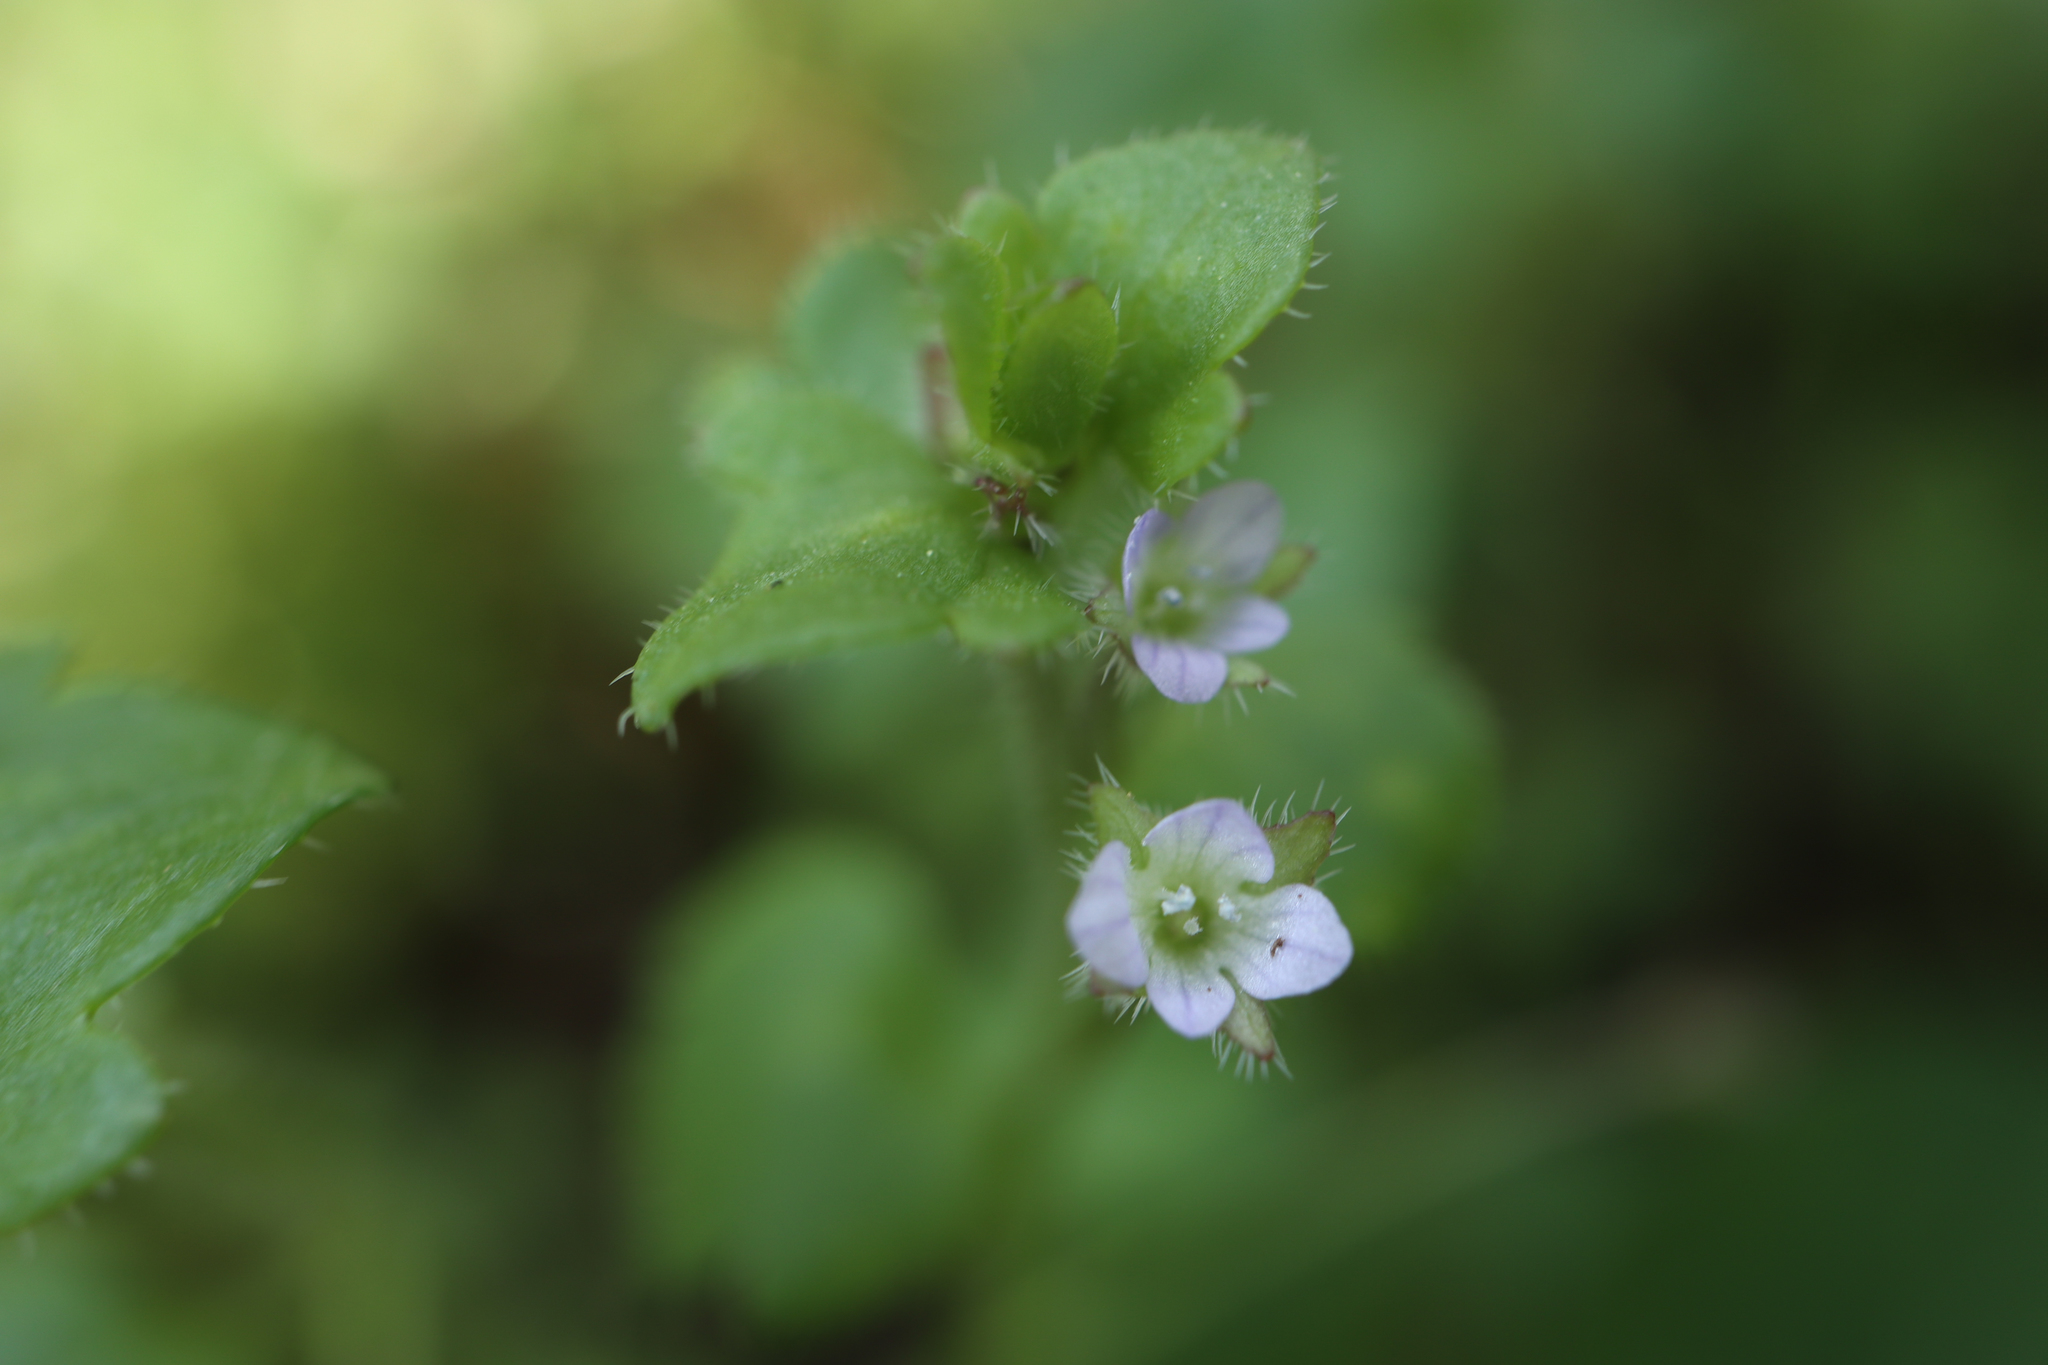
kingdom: Plantae
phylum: Tracheophyta
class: Magnoliopsida
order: Lamiales
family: Plantaginaceae
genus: Veronica
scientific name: Veronica hederifolia
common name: Ivy-leaved speedwell
